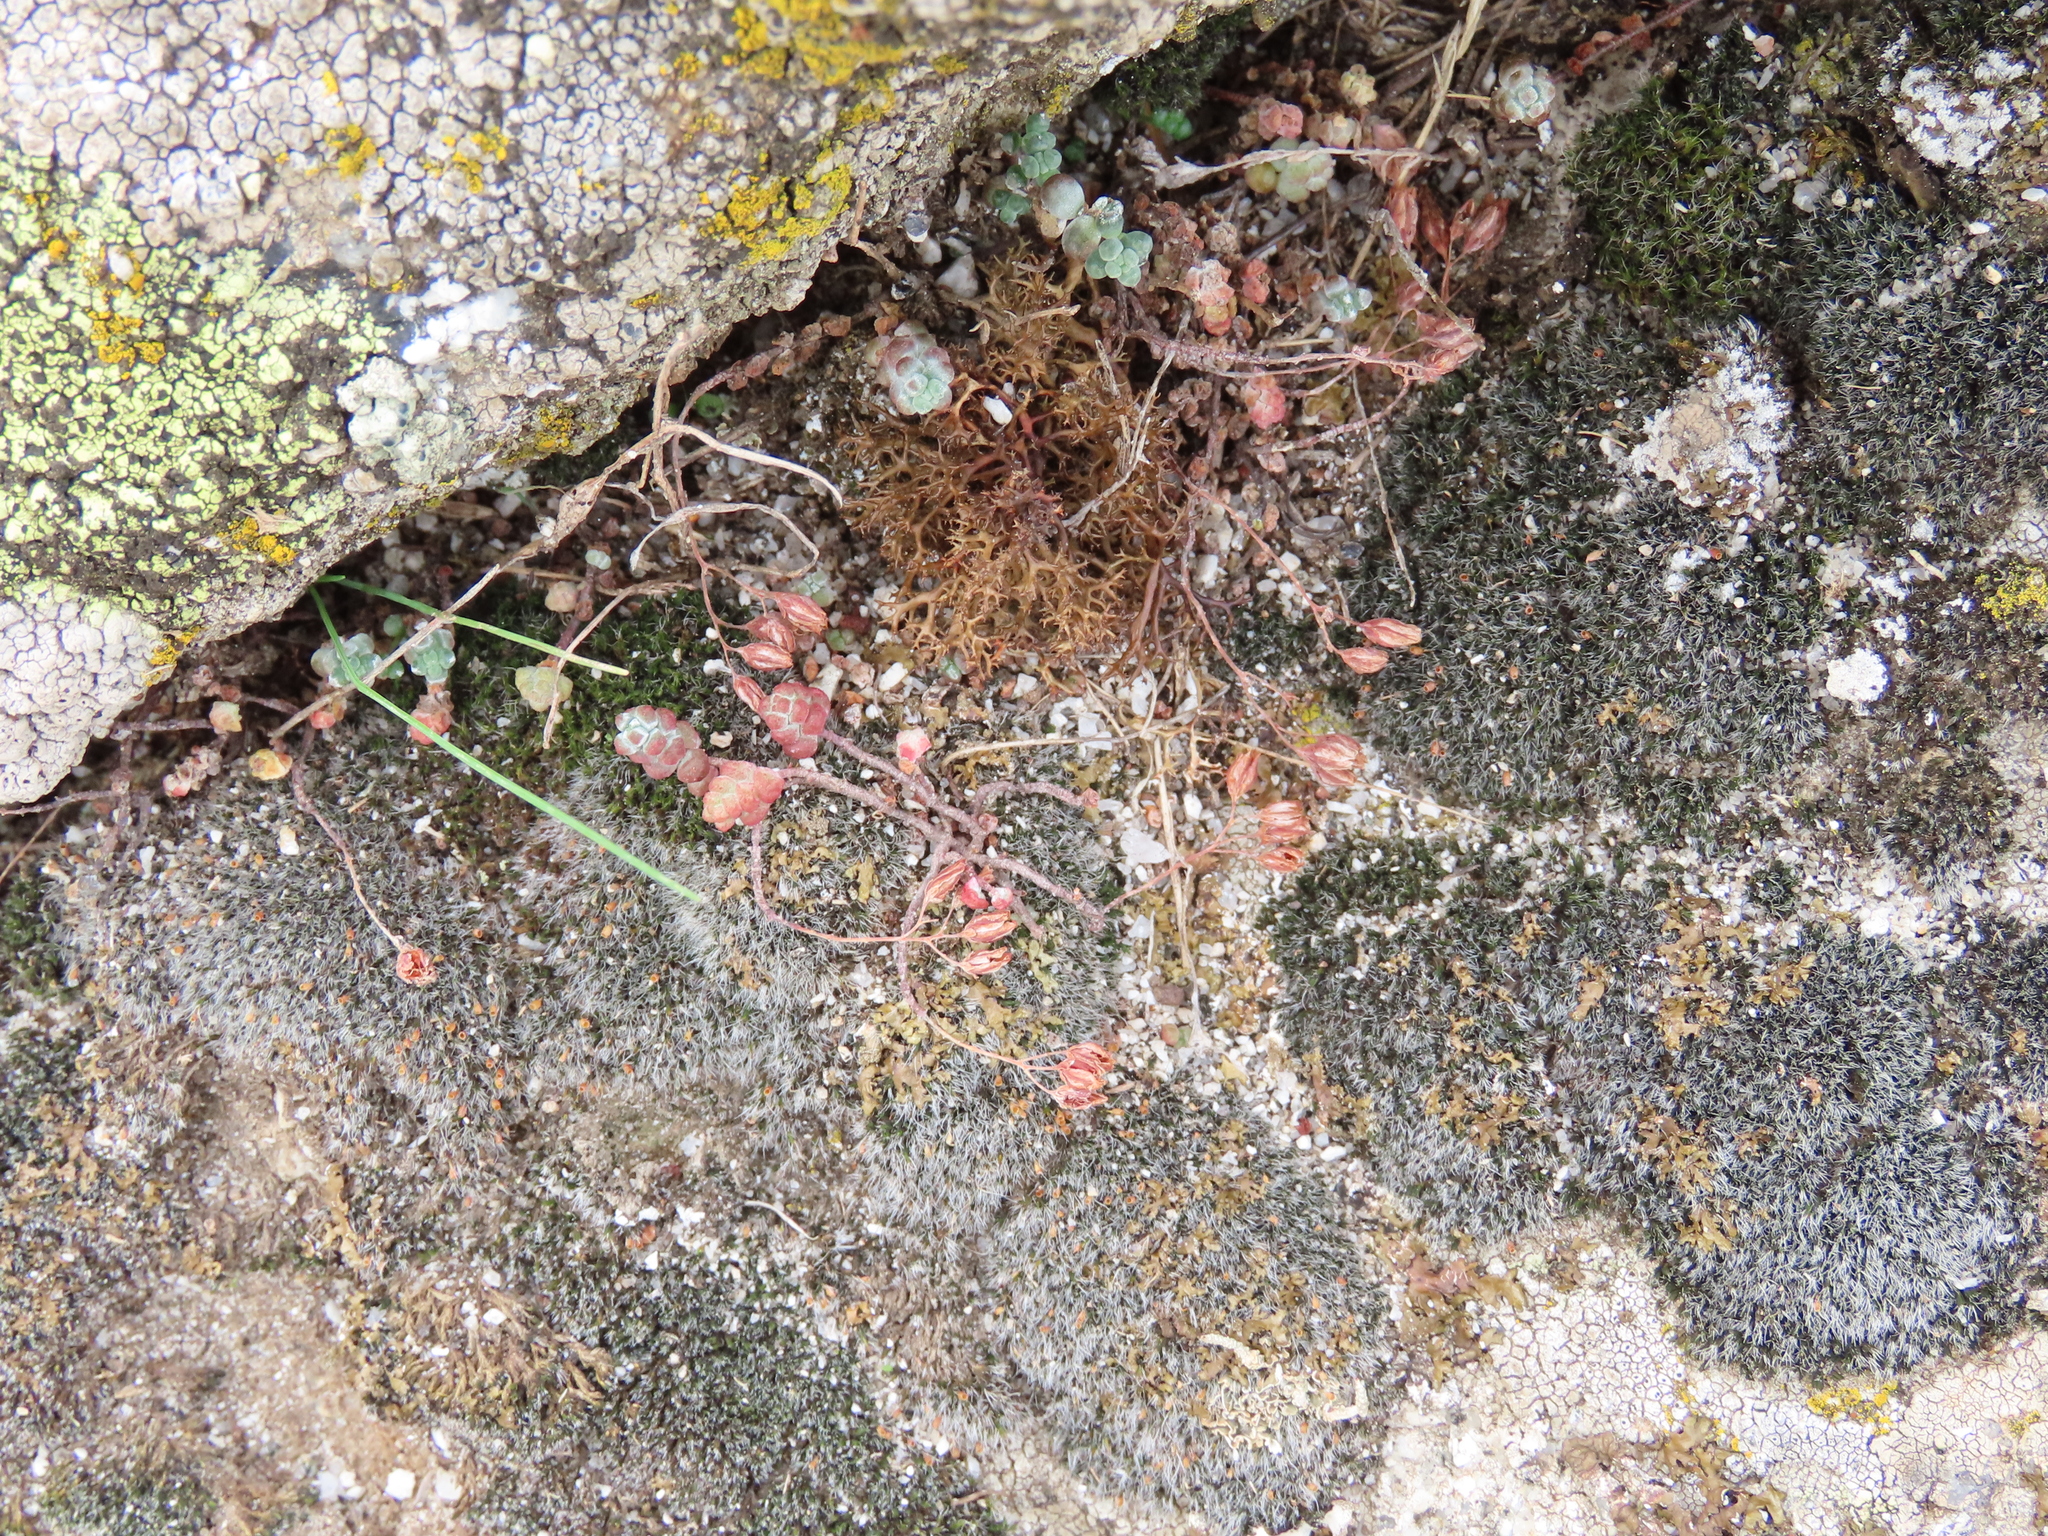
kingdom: Plantae
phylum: Tracheophyta
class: Magnoliopsida
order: Saxifragales
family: Crassulaceae
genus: Sedum
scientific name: Sedum brevifolium
